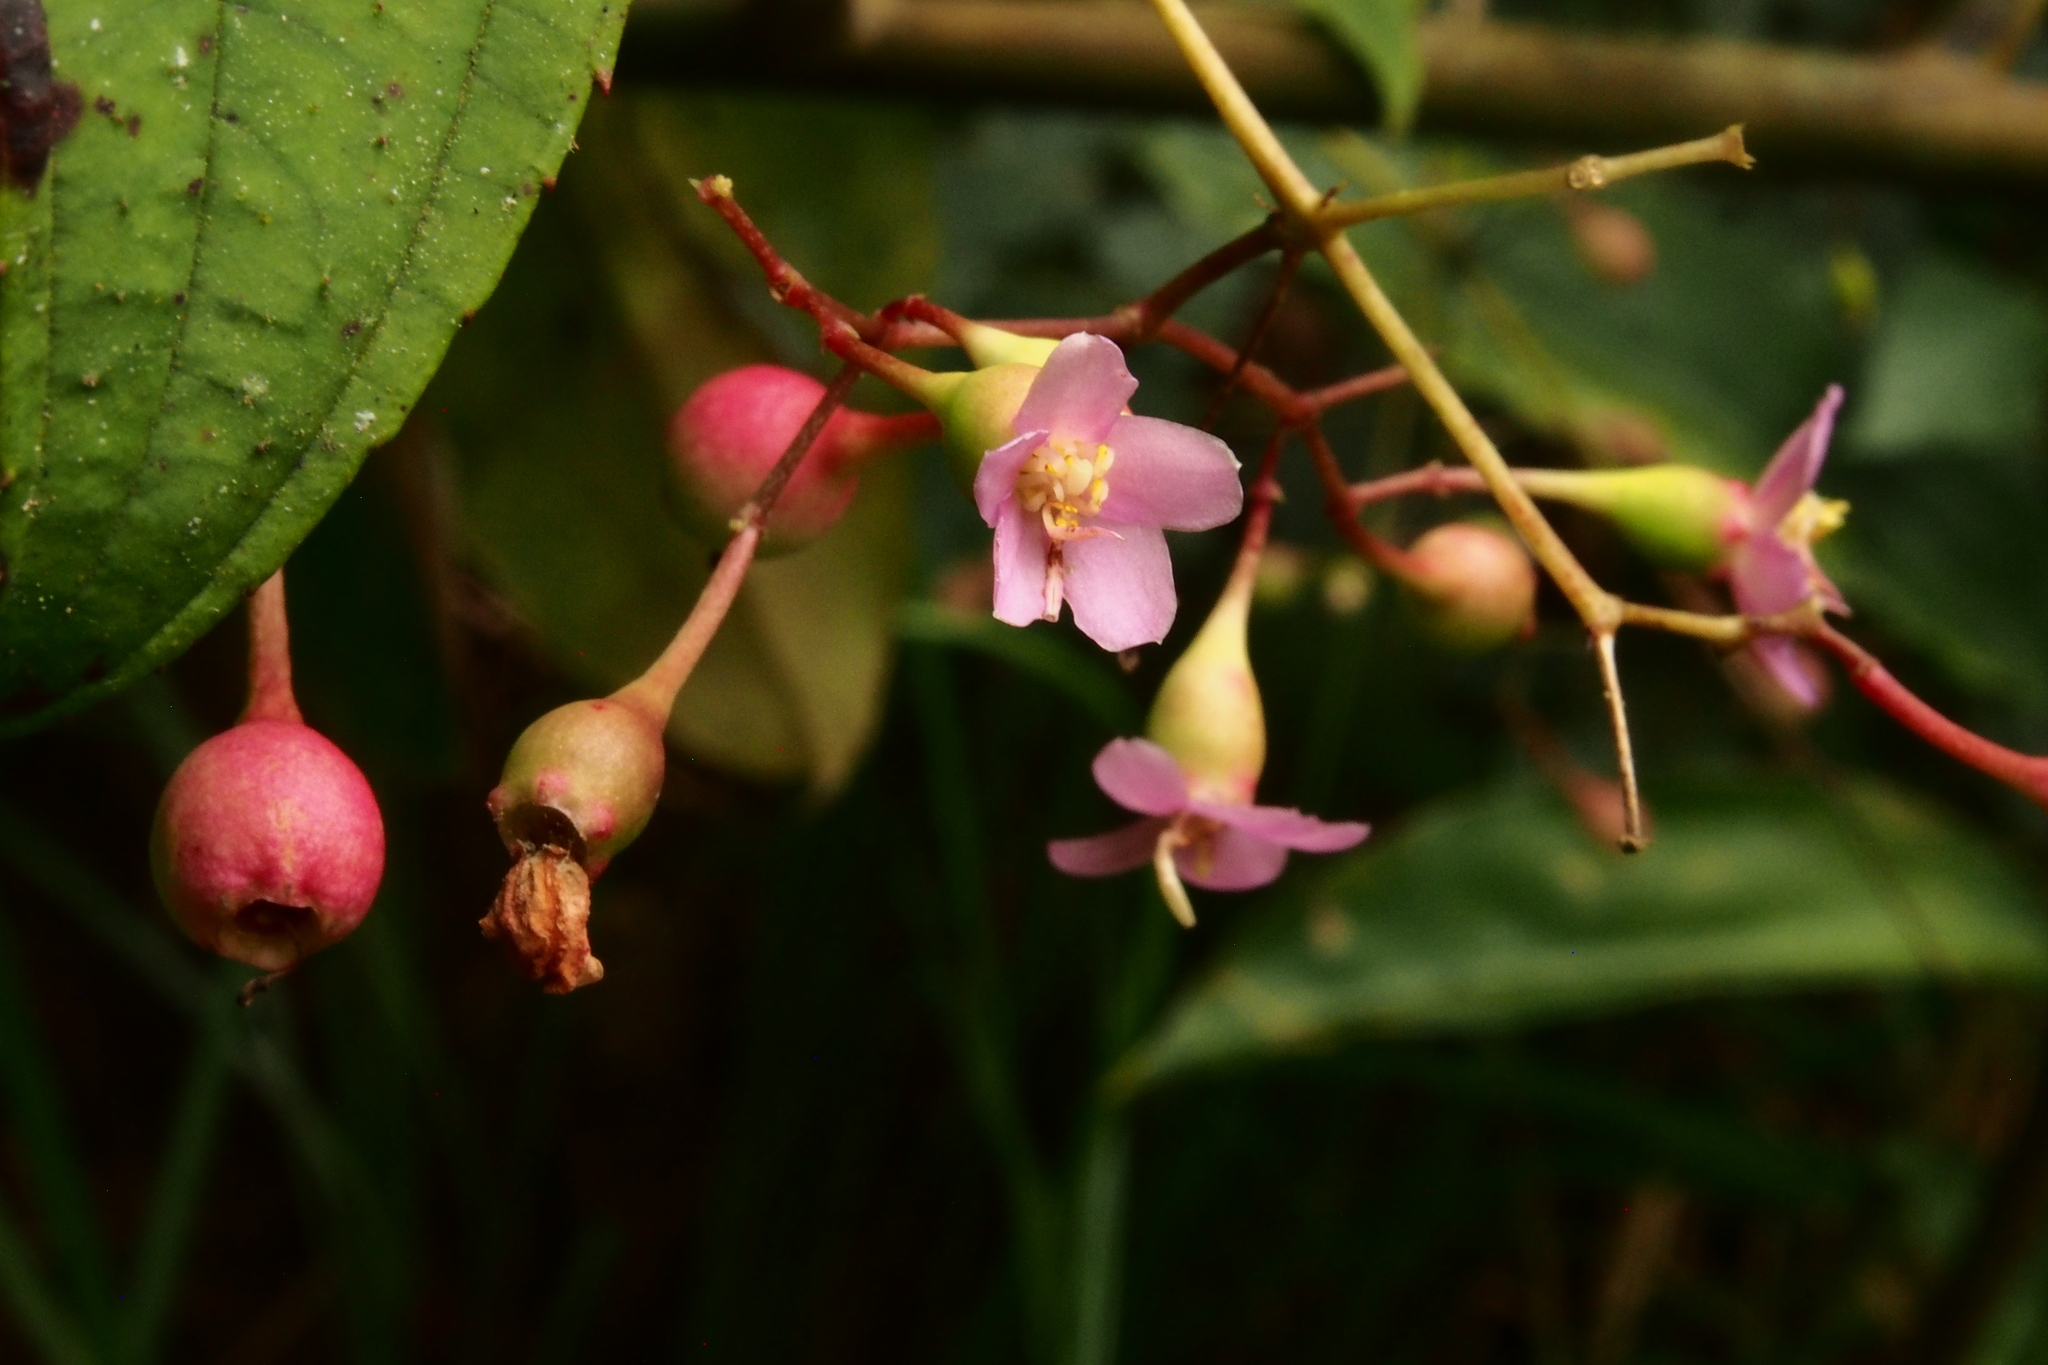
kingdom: Plantae
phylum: Tracheophyta
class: Magnoliopsida
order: Myrtales
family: Melastomataceae
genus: Dinophora
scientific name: Dinophora spenneroides
